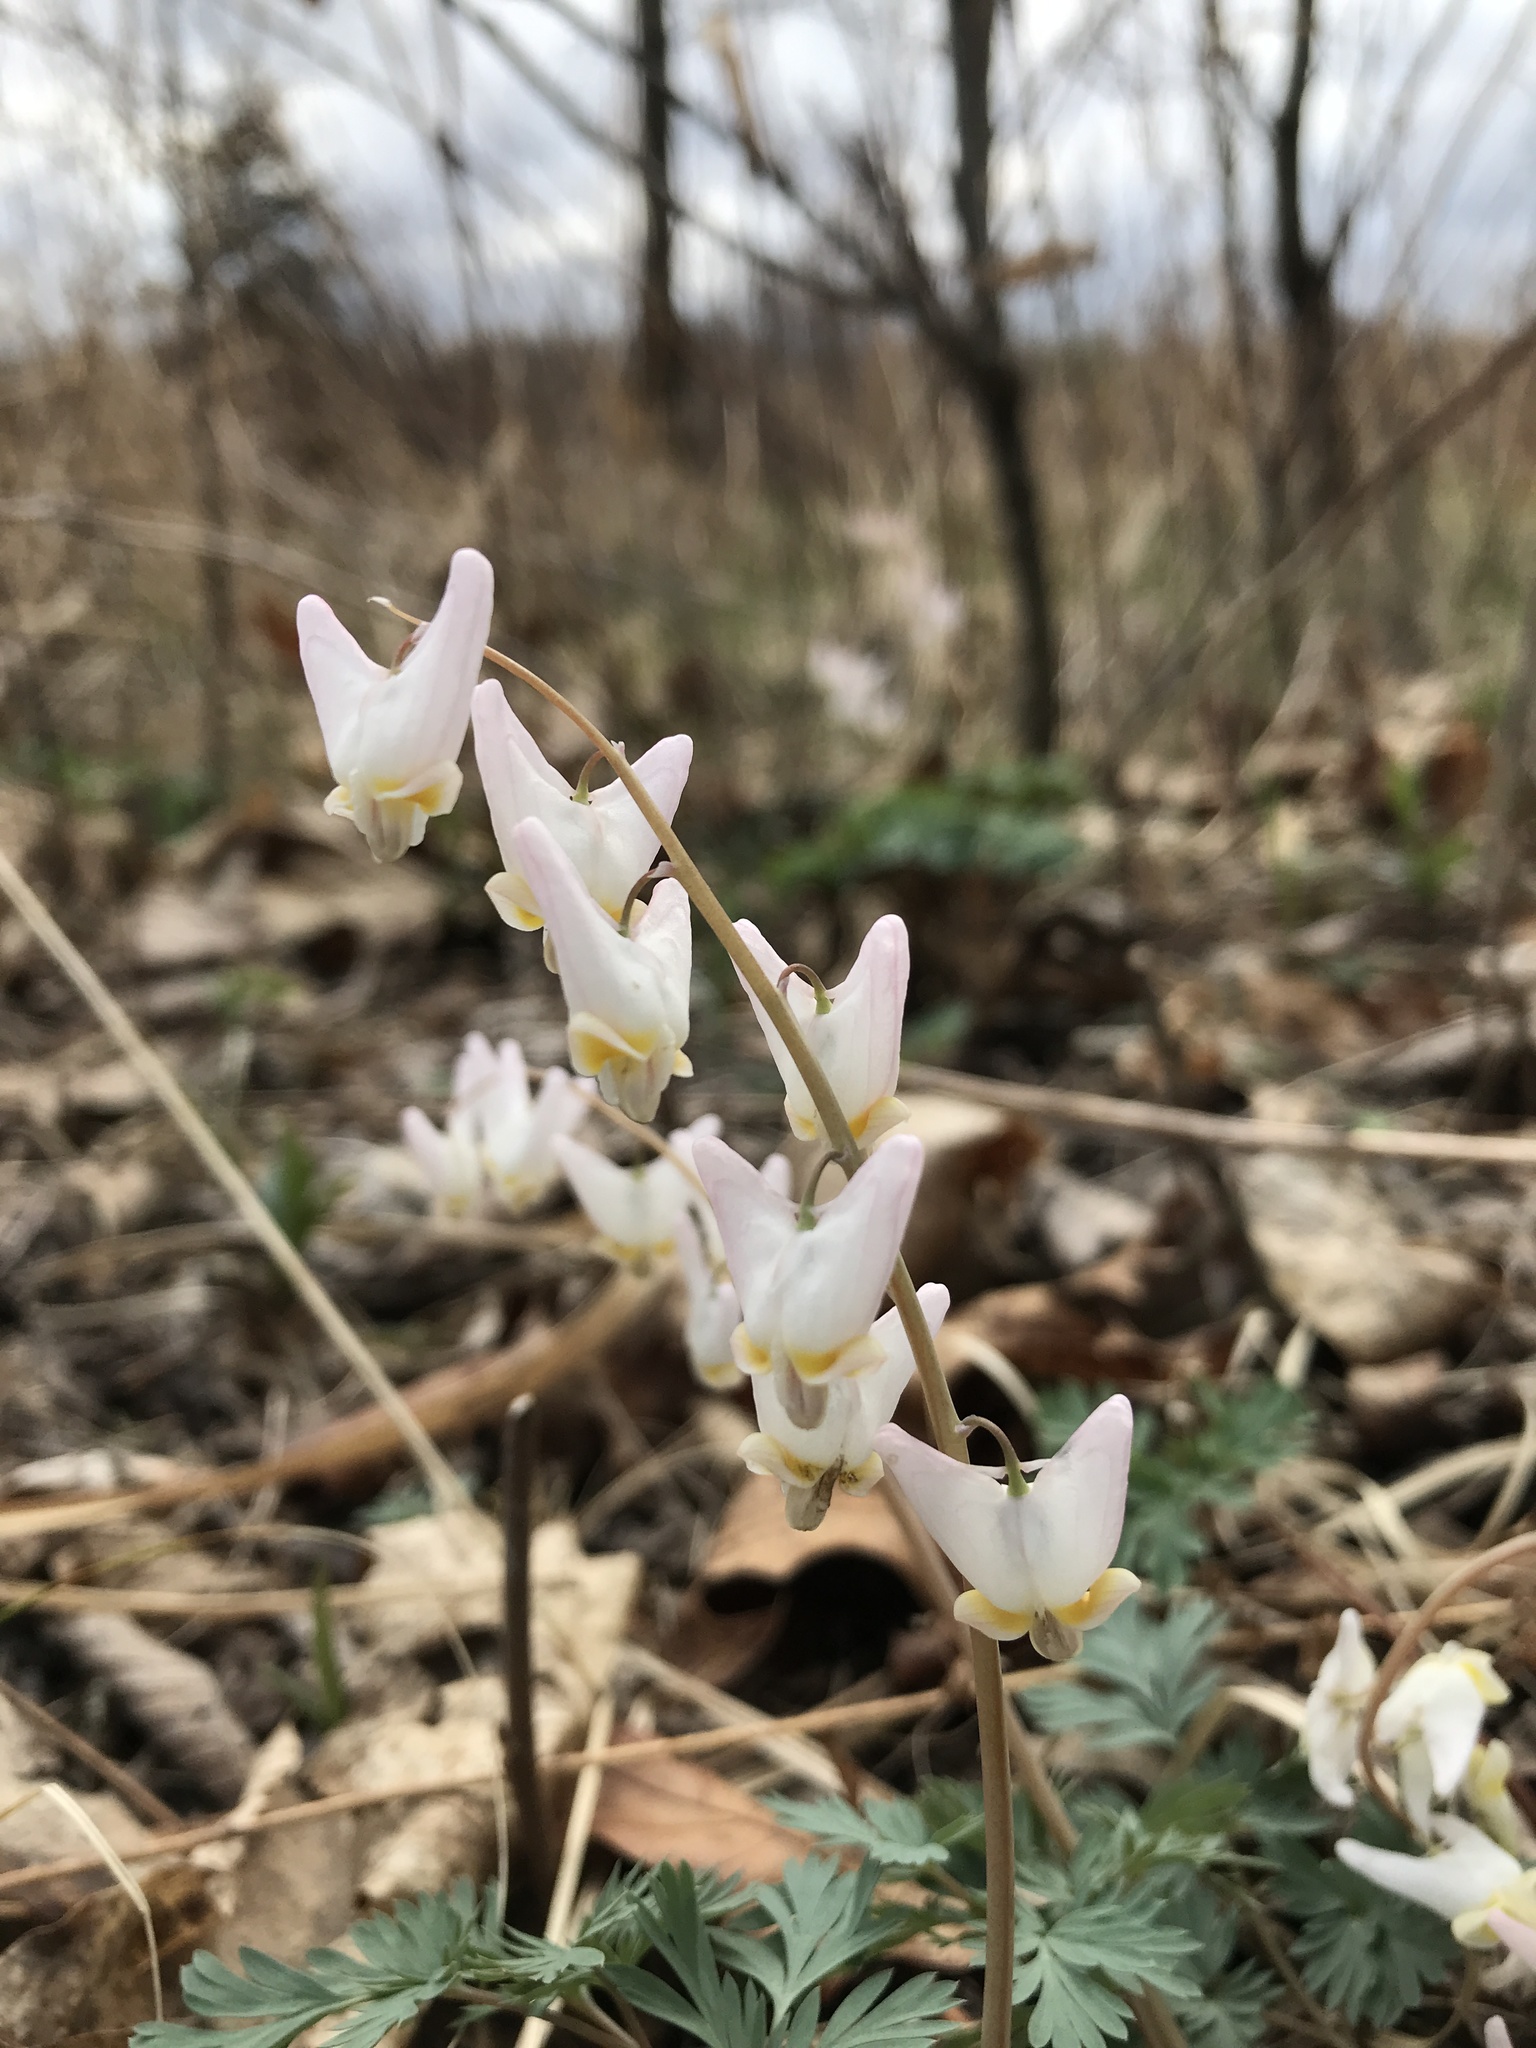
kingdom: Plantae
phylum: Tracheophyta
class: Magnoliopsida
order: Ranunculales
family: Papaveraceae
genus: Dicentra
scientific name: Dicentra cucullaria
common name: Dutchman's breeches
